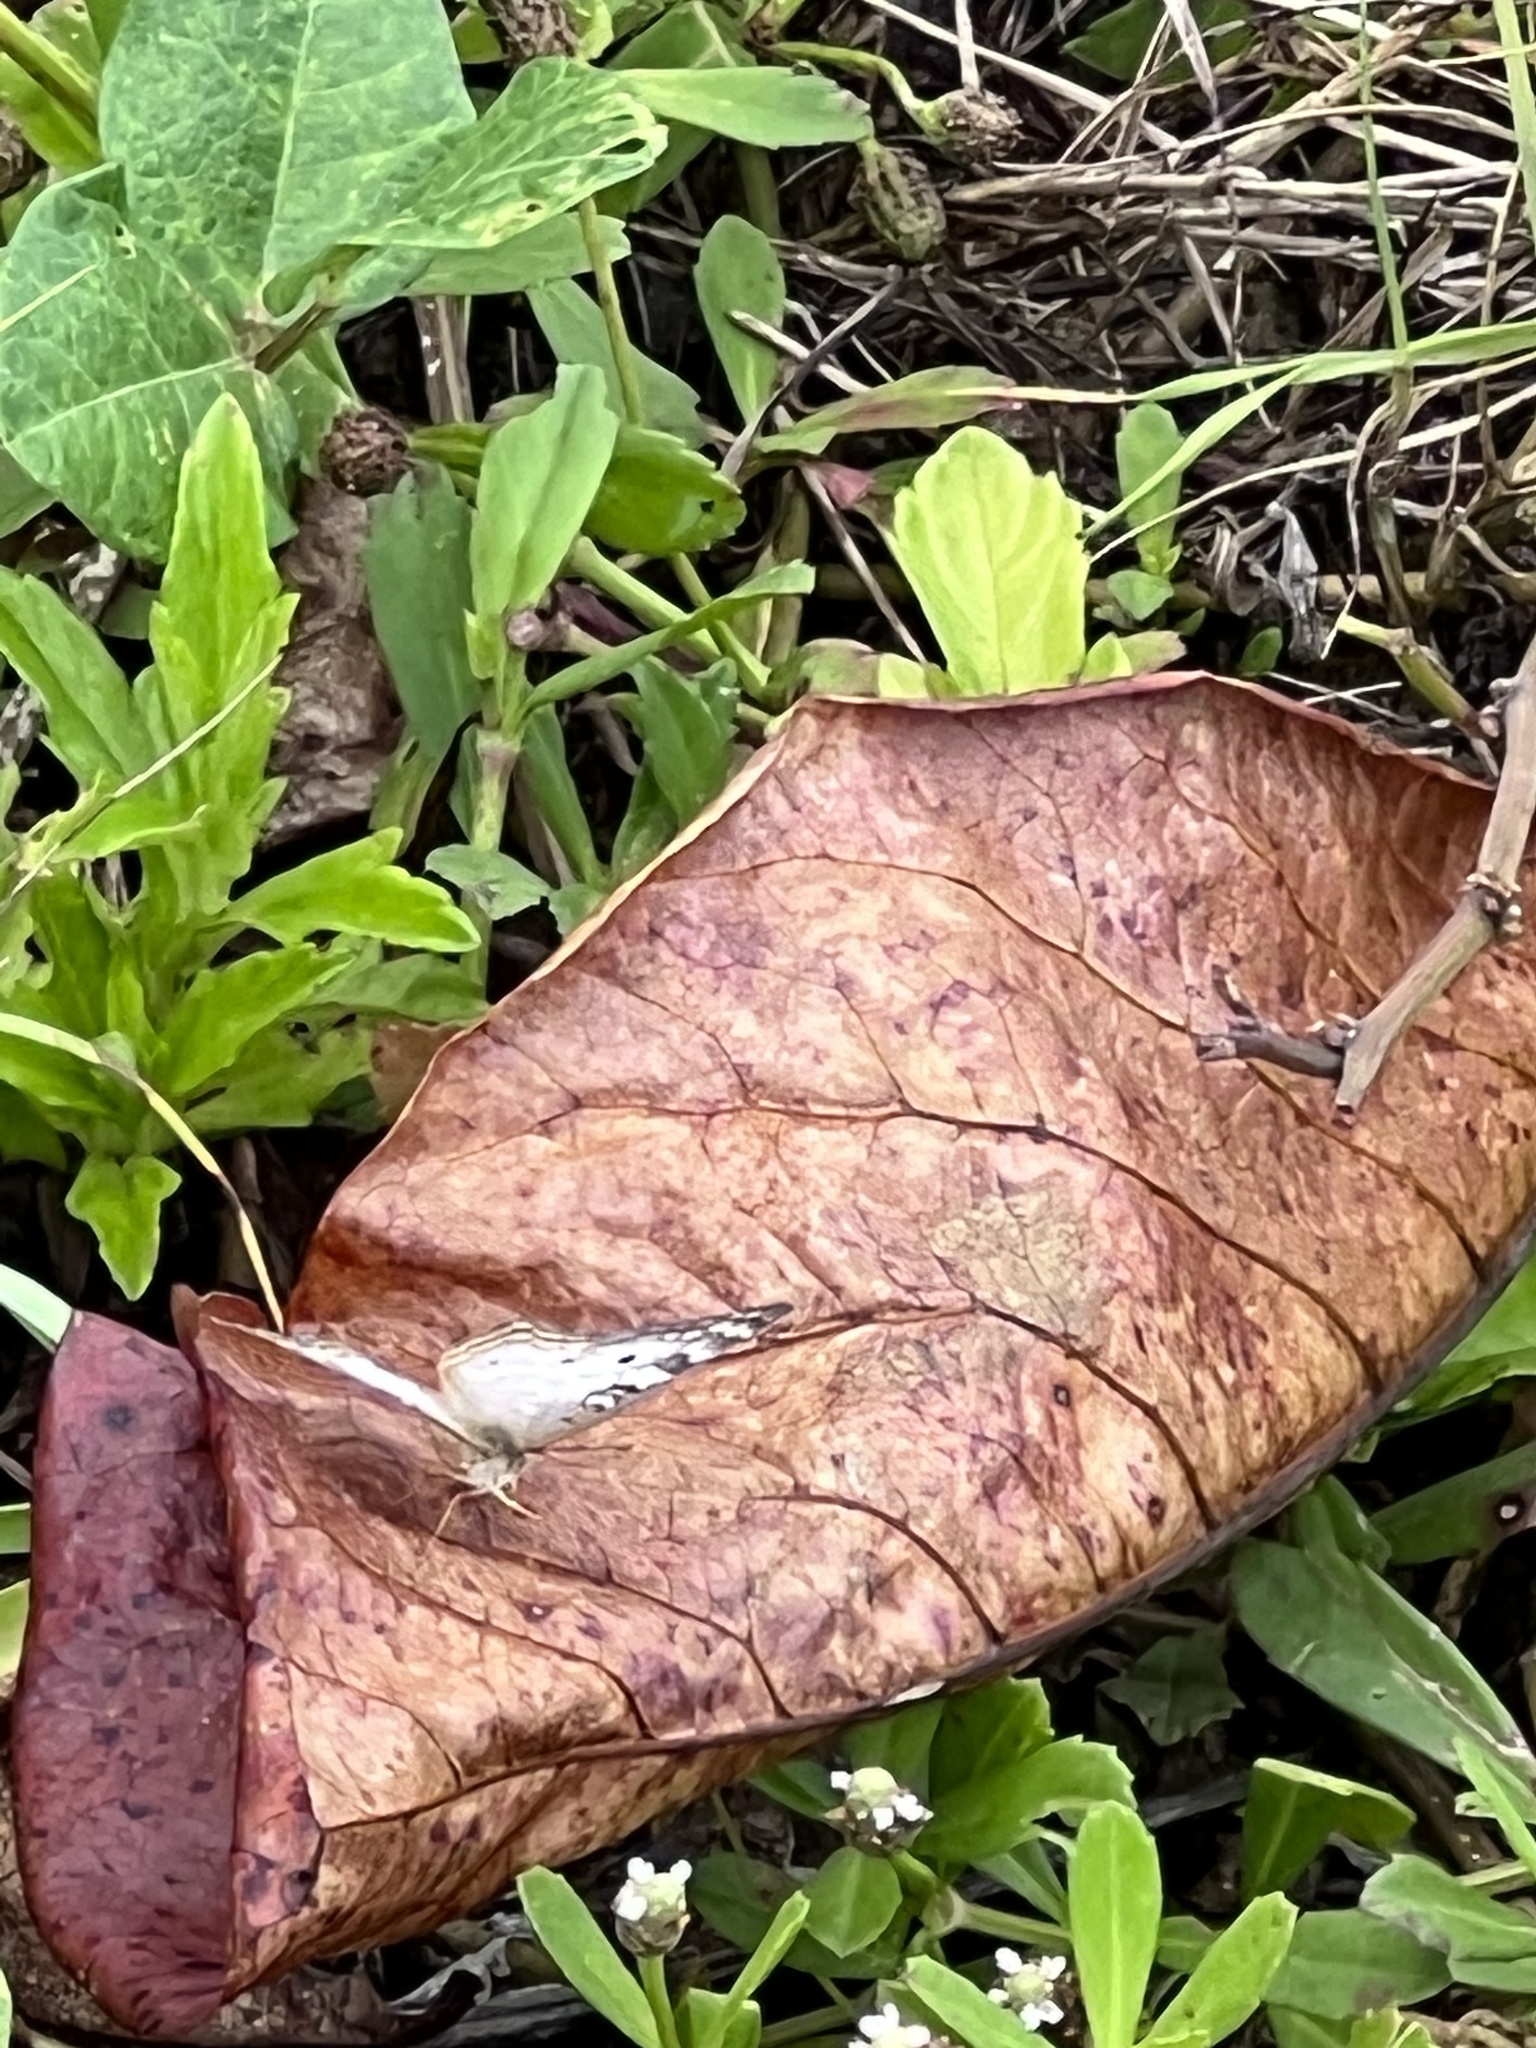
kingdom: Animalia
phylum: Arthropoda
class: Insecta
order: Lepidoptera
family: Nymphalidae
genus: Anartia
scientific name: Anartia jatrophae
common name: White peacock
